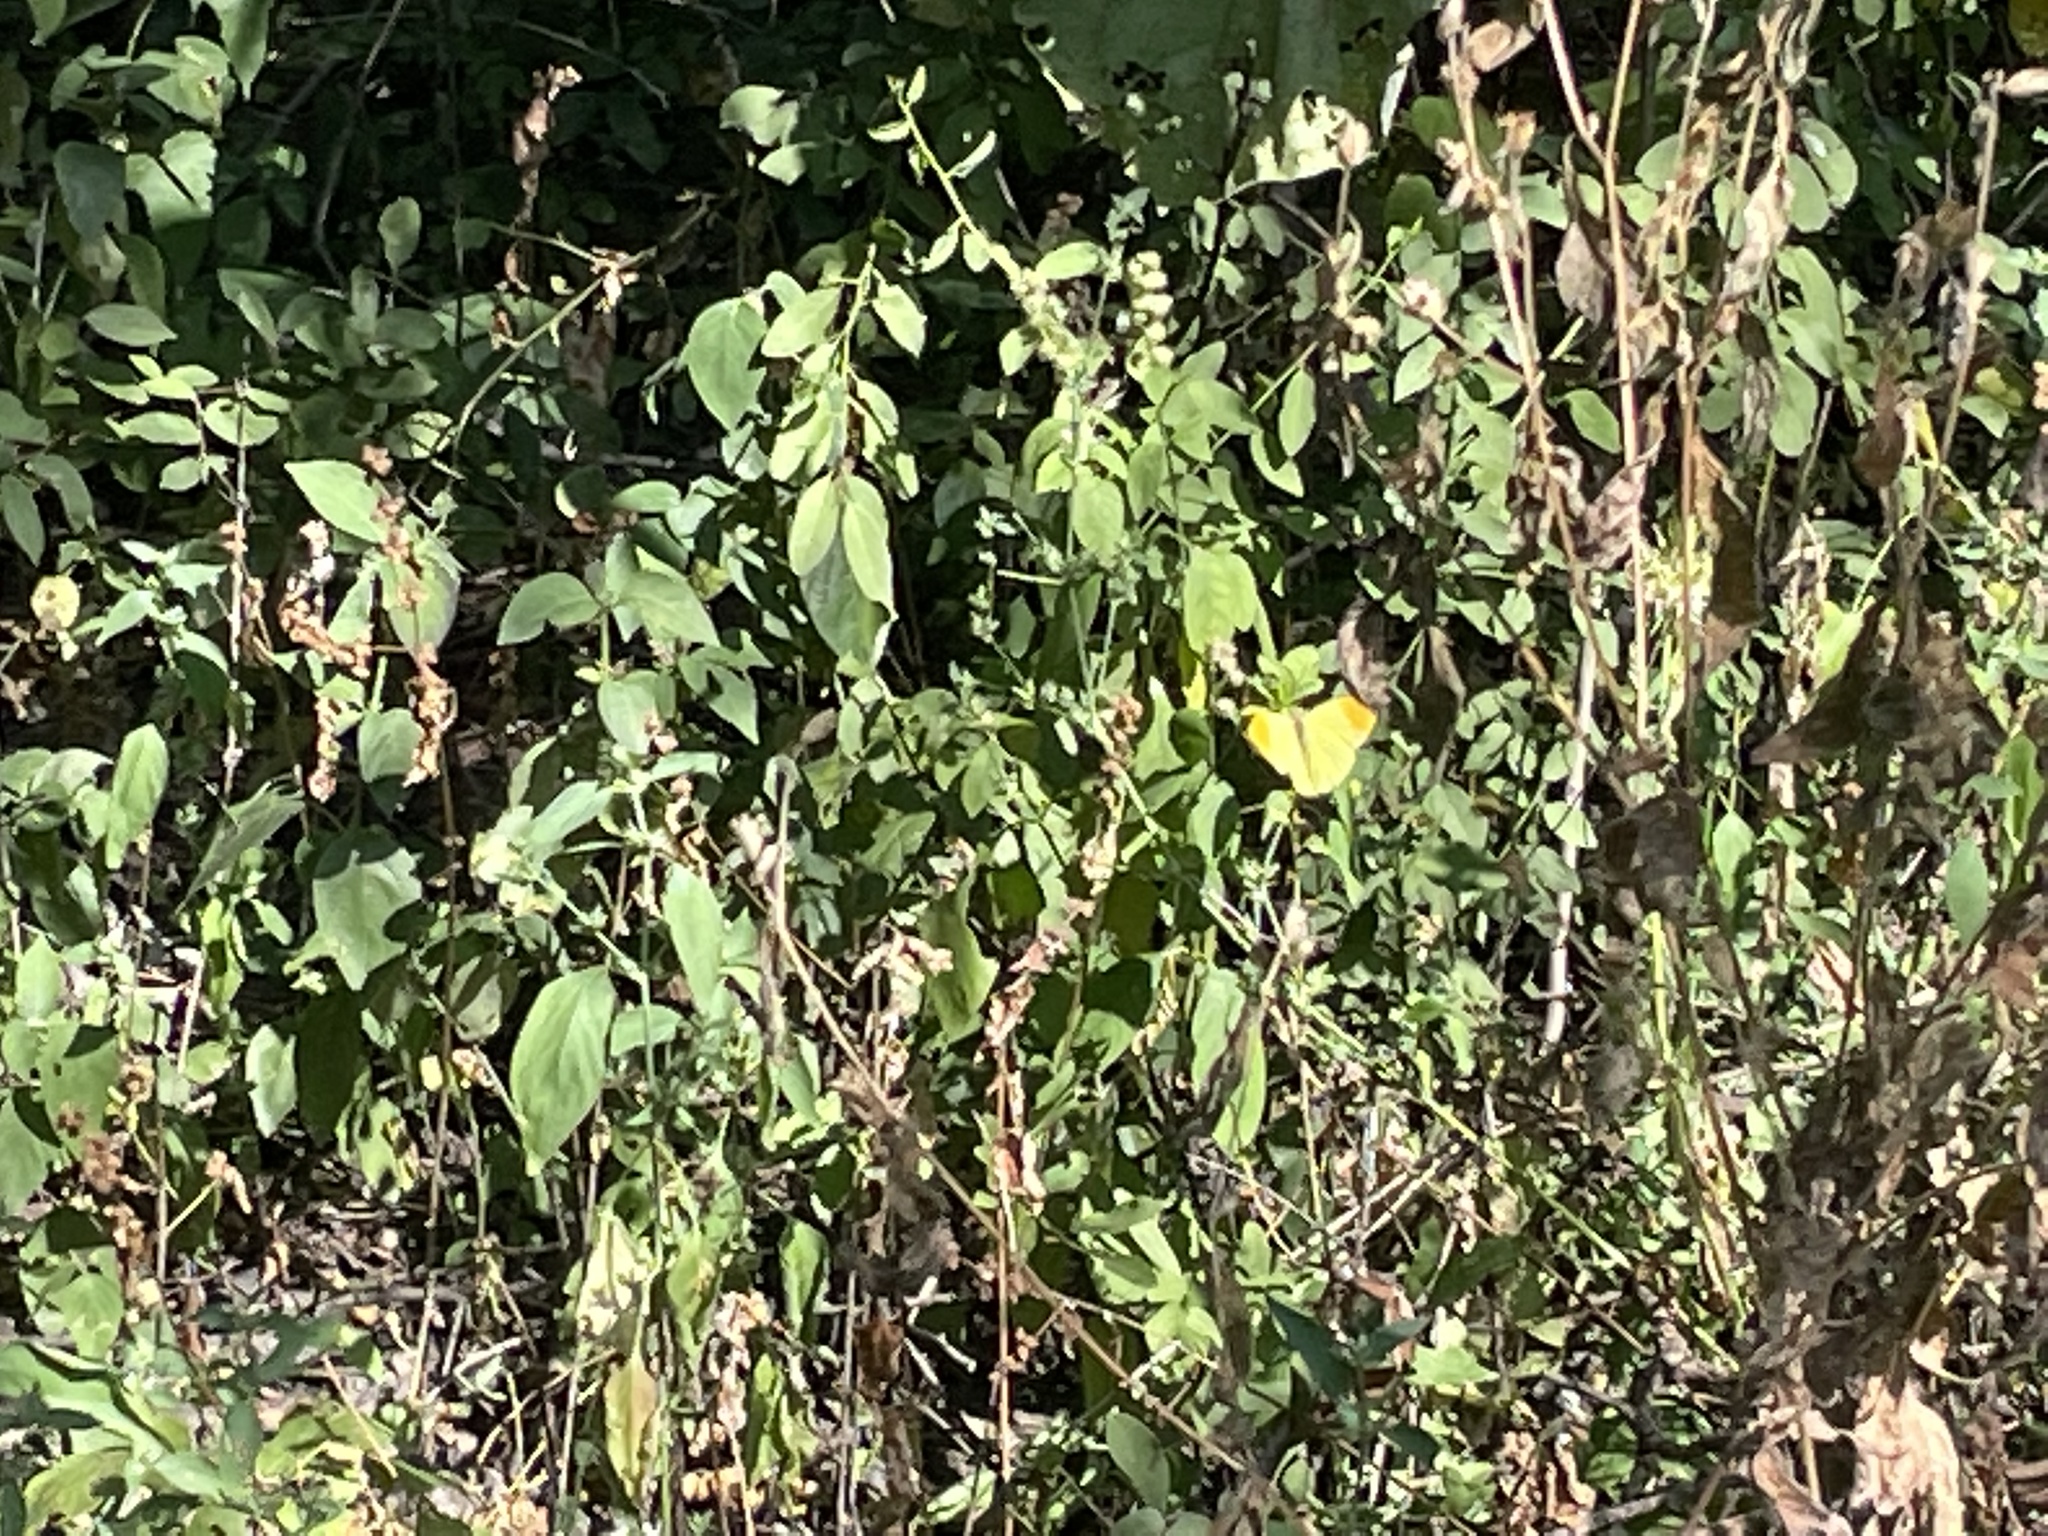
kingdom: Animalia
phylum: Arthropoda
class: Insecta
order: Lepidoptera
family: Pieridae
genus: Eronia
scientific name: Eronia leda
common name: Autumn leaf vagrant
